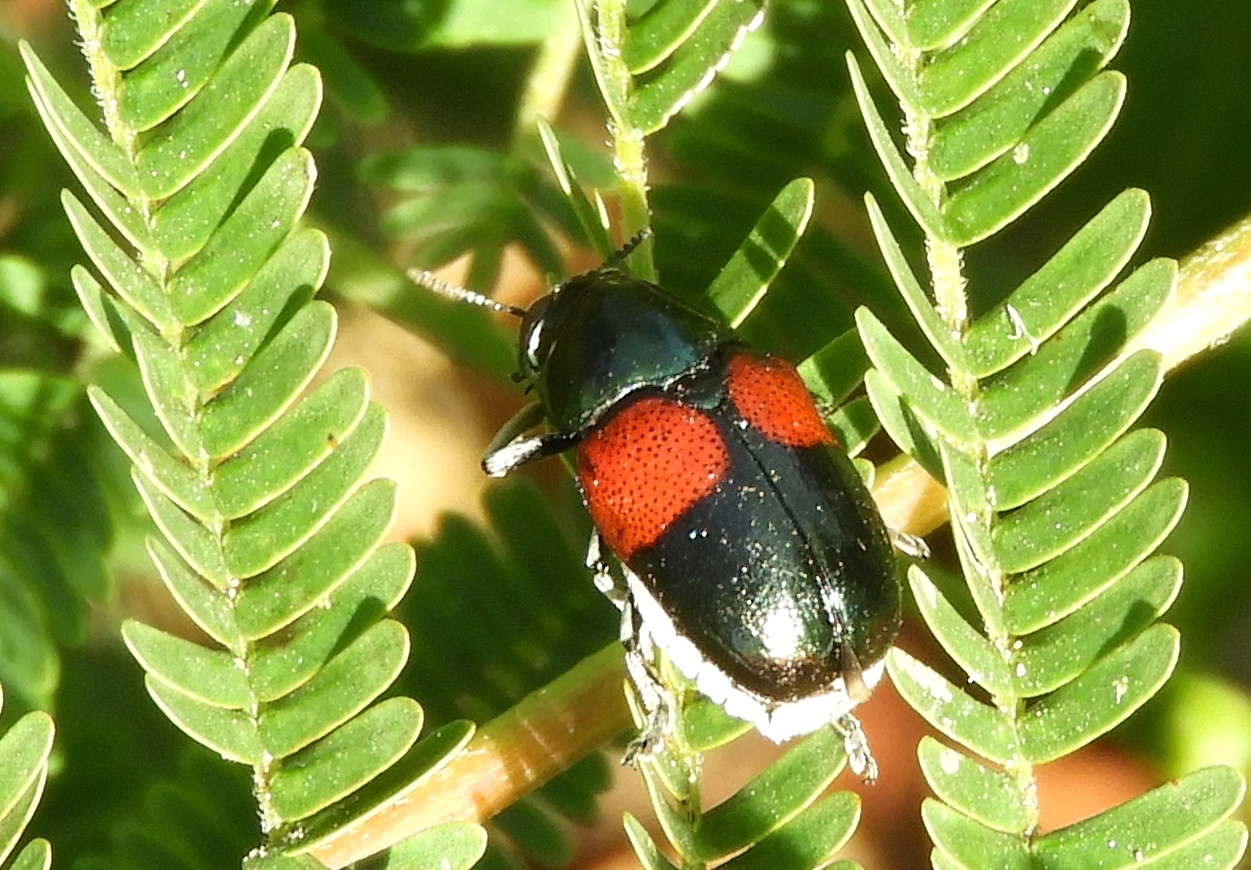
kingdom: Animalia
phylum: Arthropoda
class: Insecta
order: Coleoptera
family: Chrysomelidae
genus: Megalostomis
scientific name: Megalostomis pyropyga
